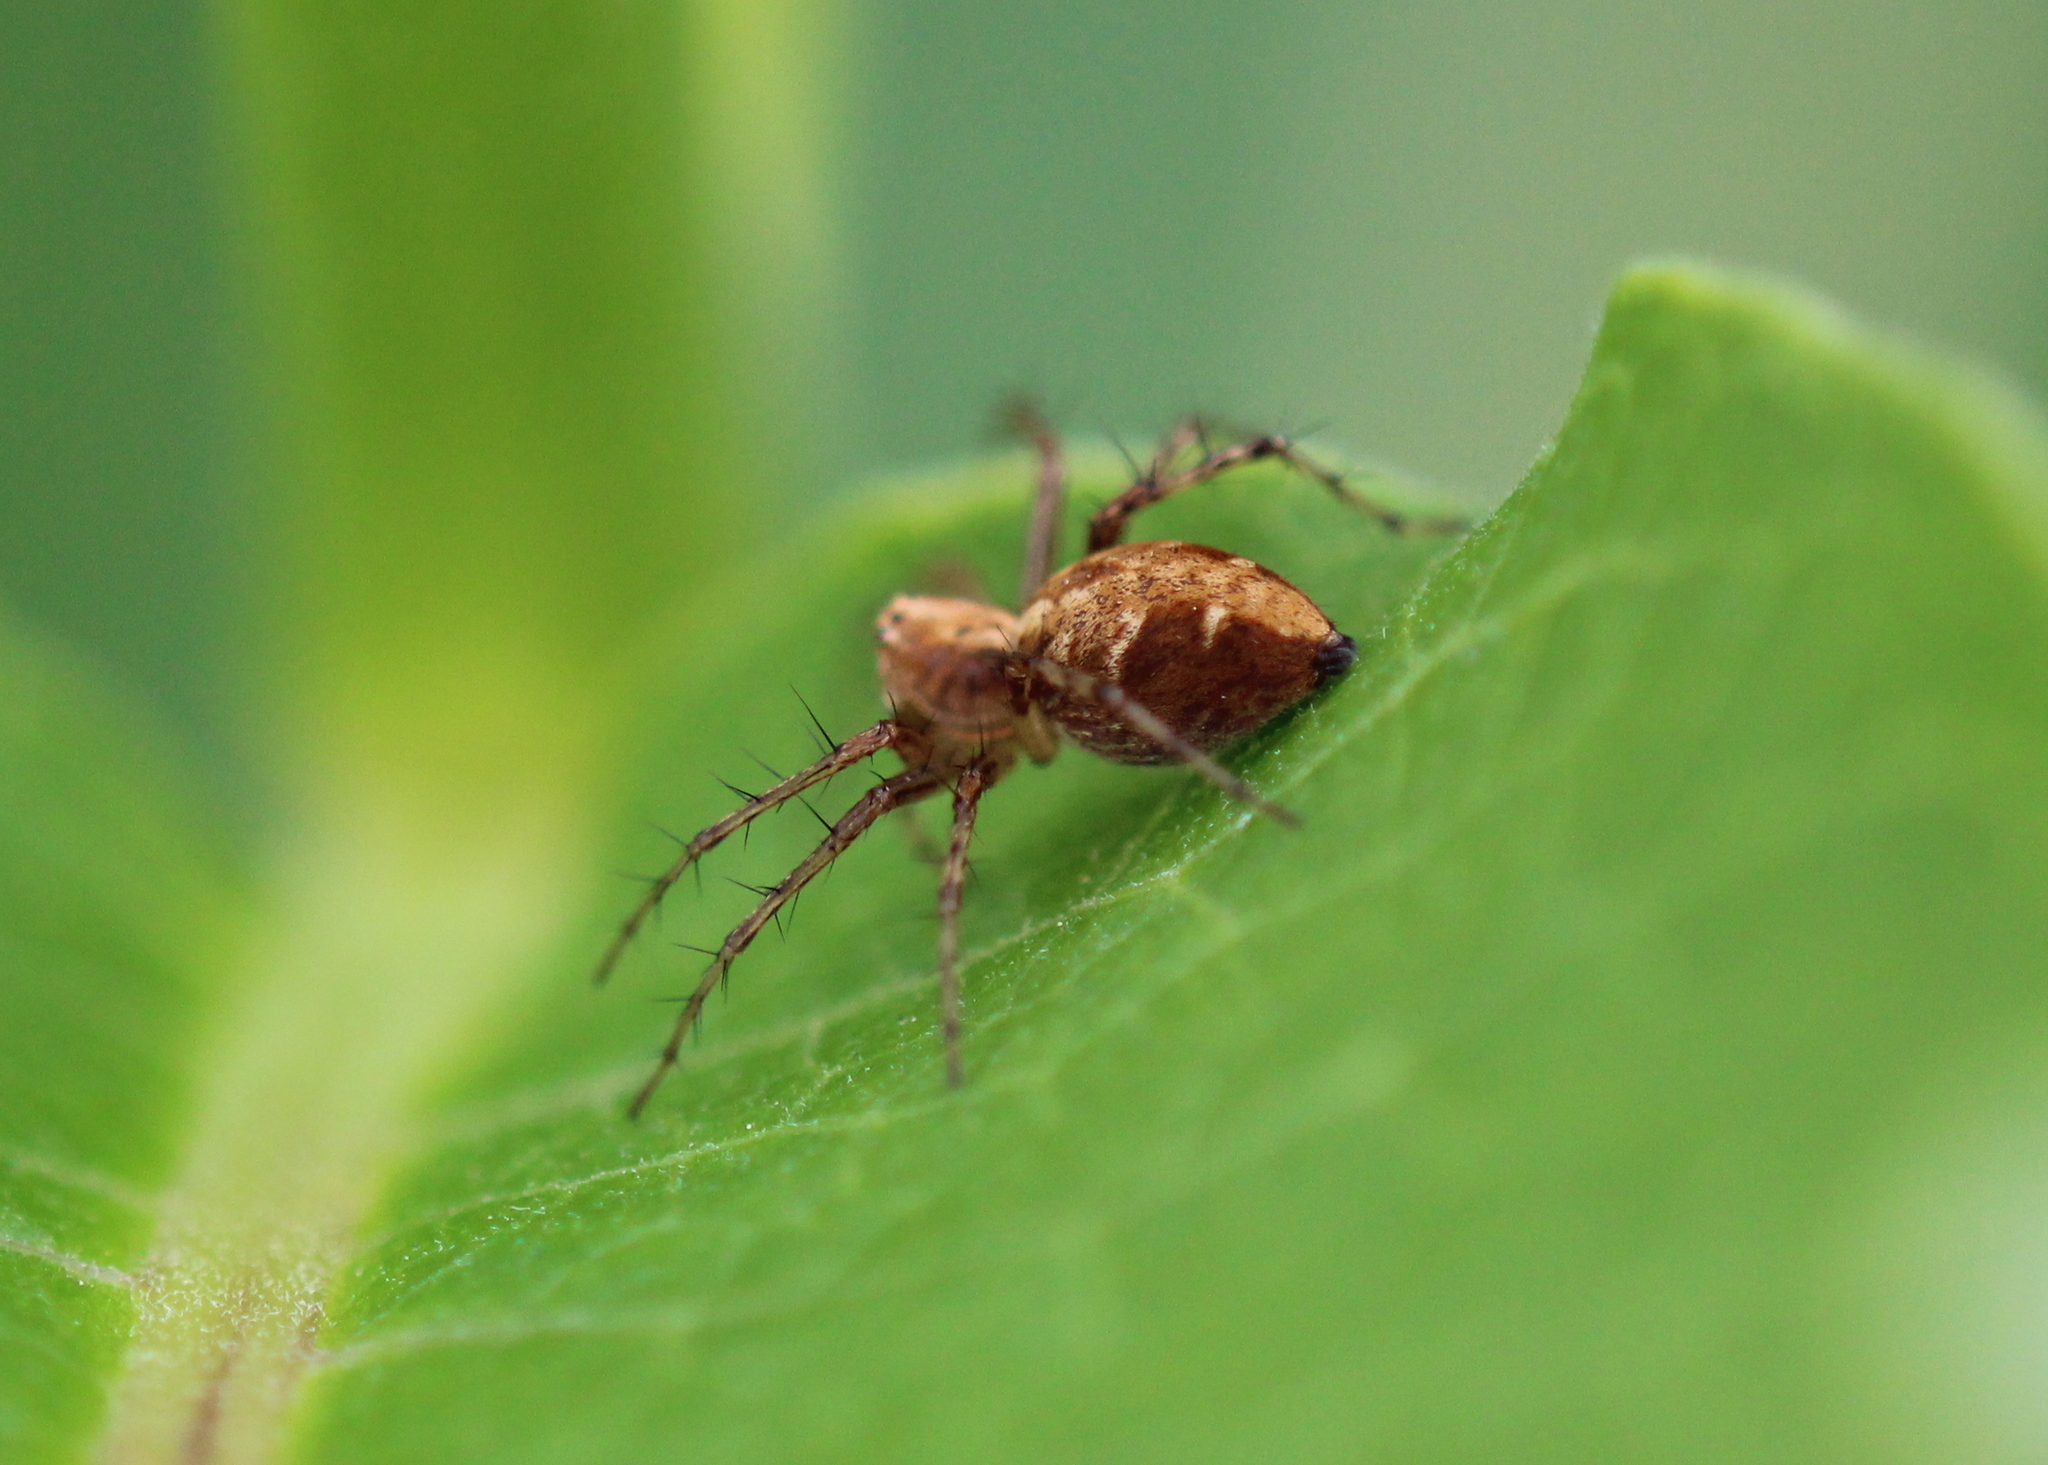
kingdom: Animalia
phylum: Arthropoda
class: Arachnida
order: Araneae
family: Oxyopidae
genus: Oxyopes
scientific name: Oxyopes scalaris
